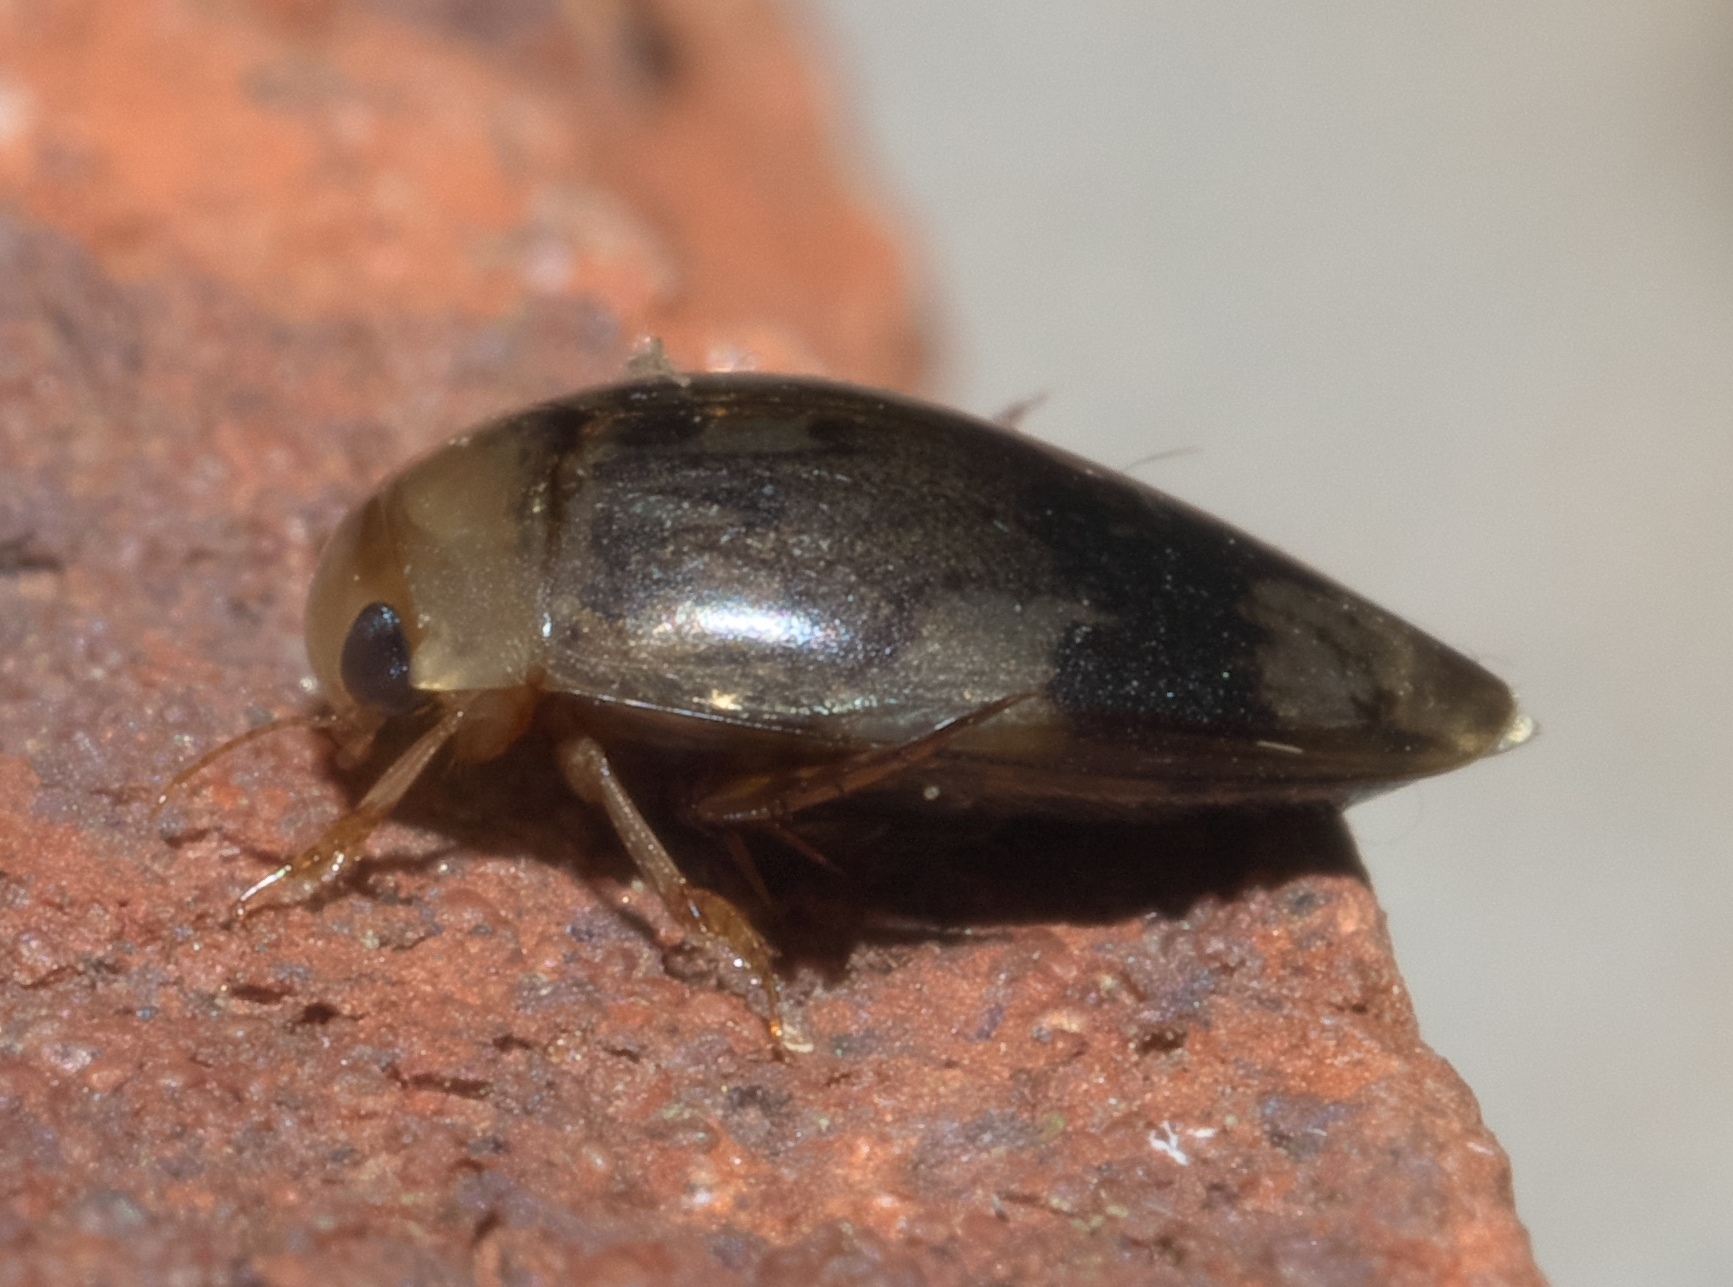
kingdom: Animalia
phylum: Arthropoda
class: Insecta
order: Coleoptera
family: Dytiscidae
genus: Laccophilus
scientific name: Laccophilus fasciatus
